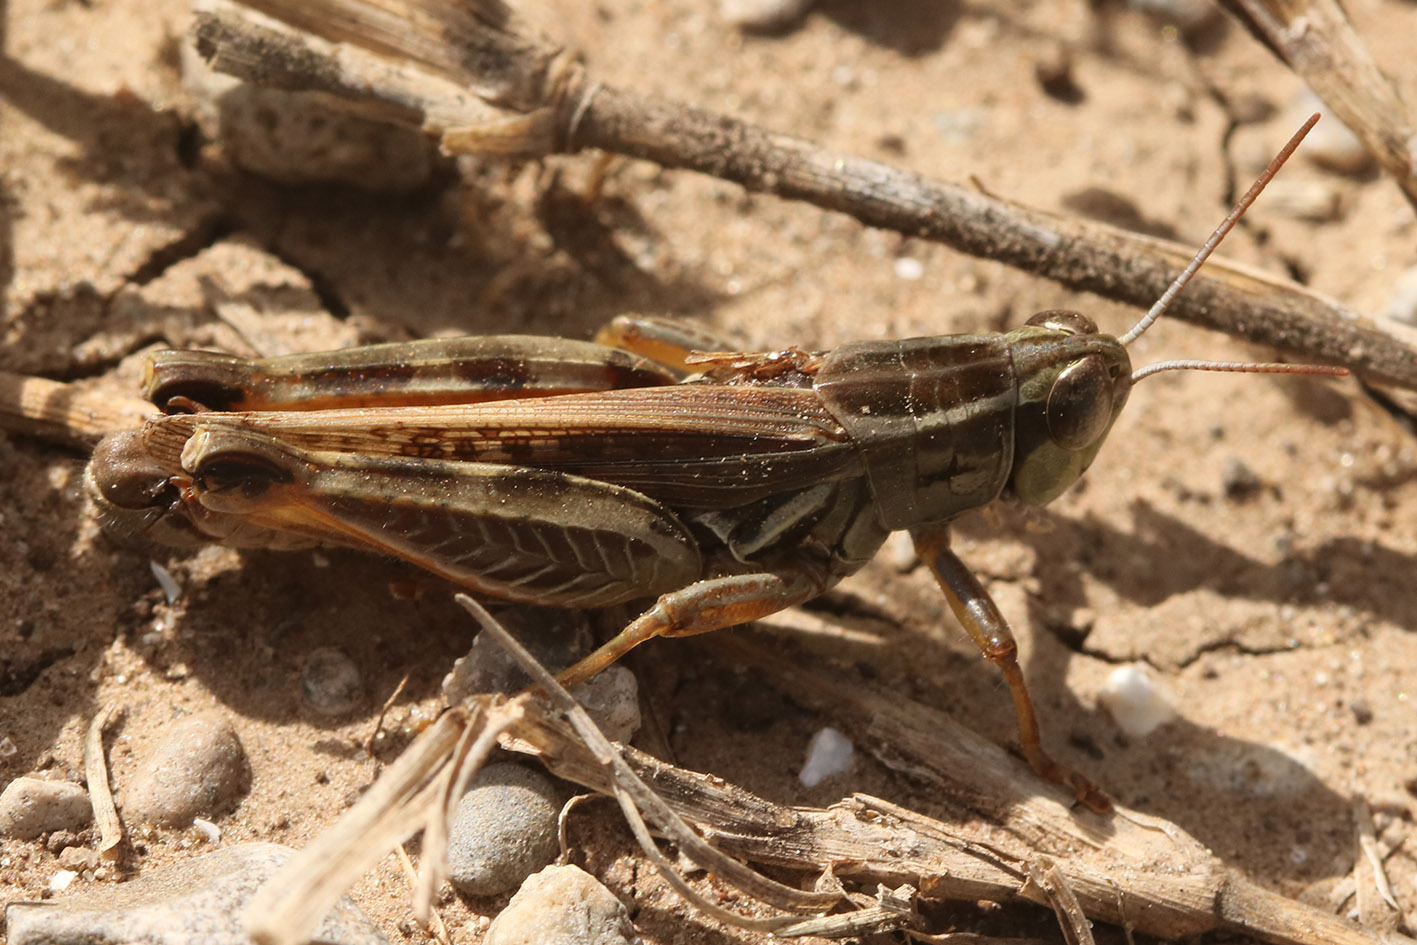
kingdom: Animalia
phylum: Arthropoda
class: Insecta
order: Orthoptera
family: Acrididae
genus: Dichroplus
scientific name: Dichroplus pratensis
